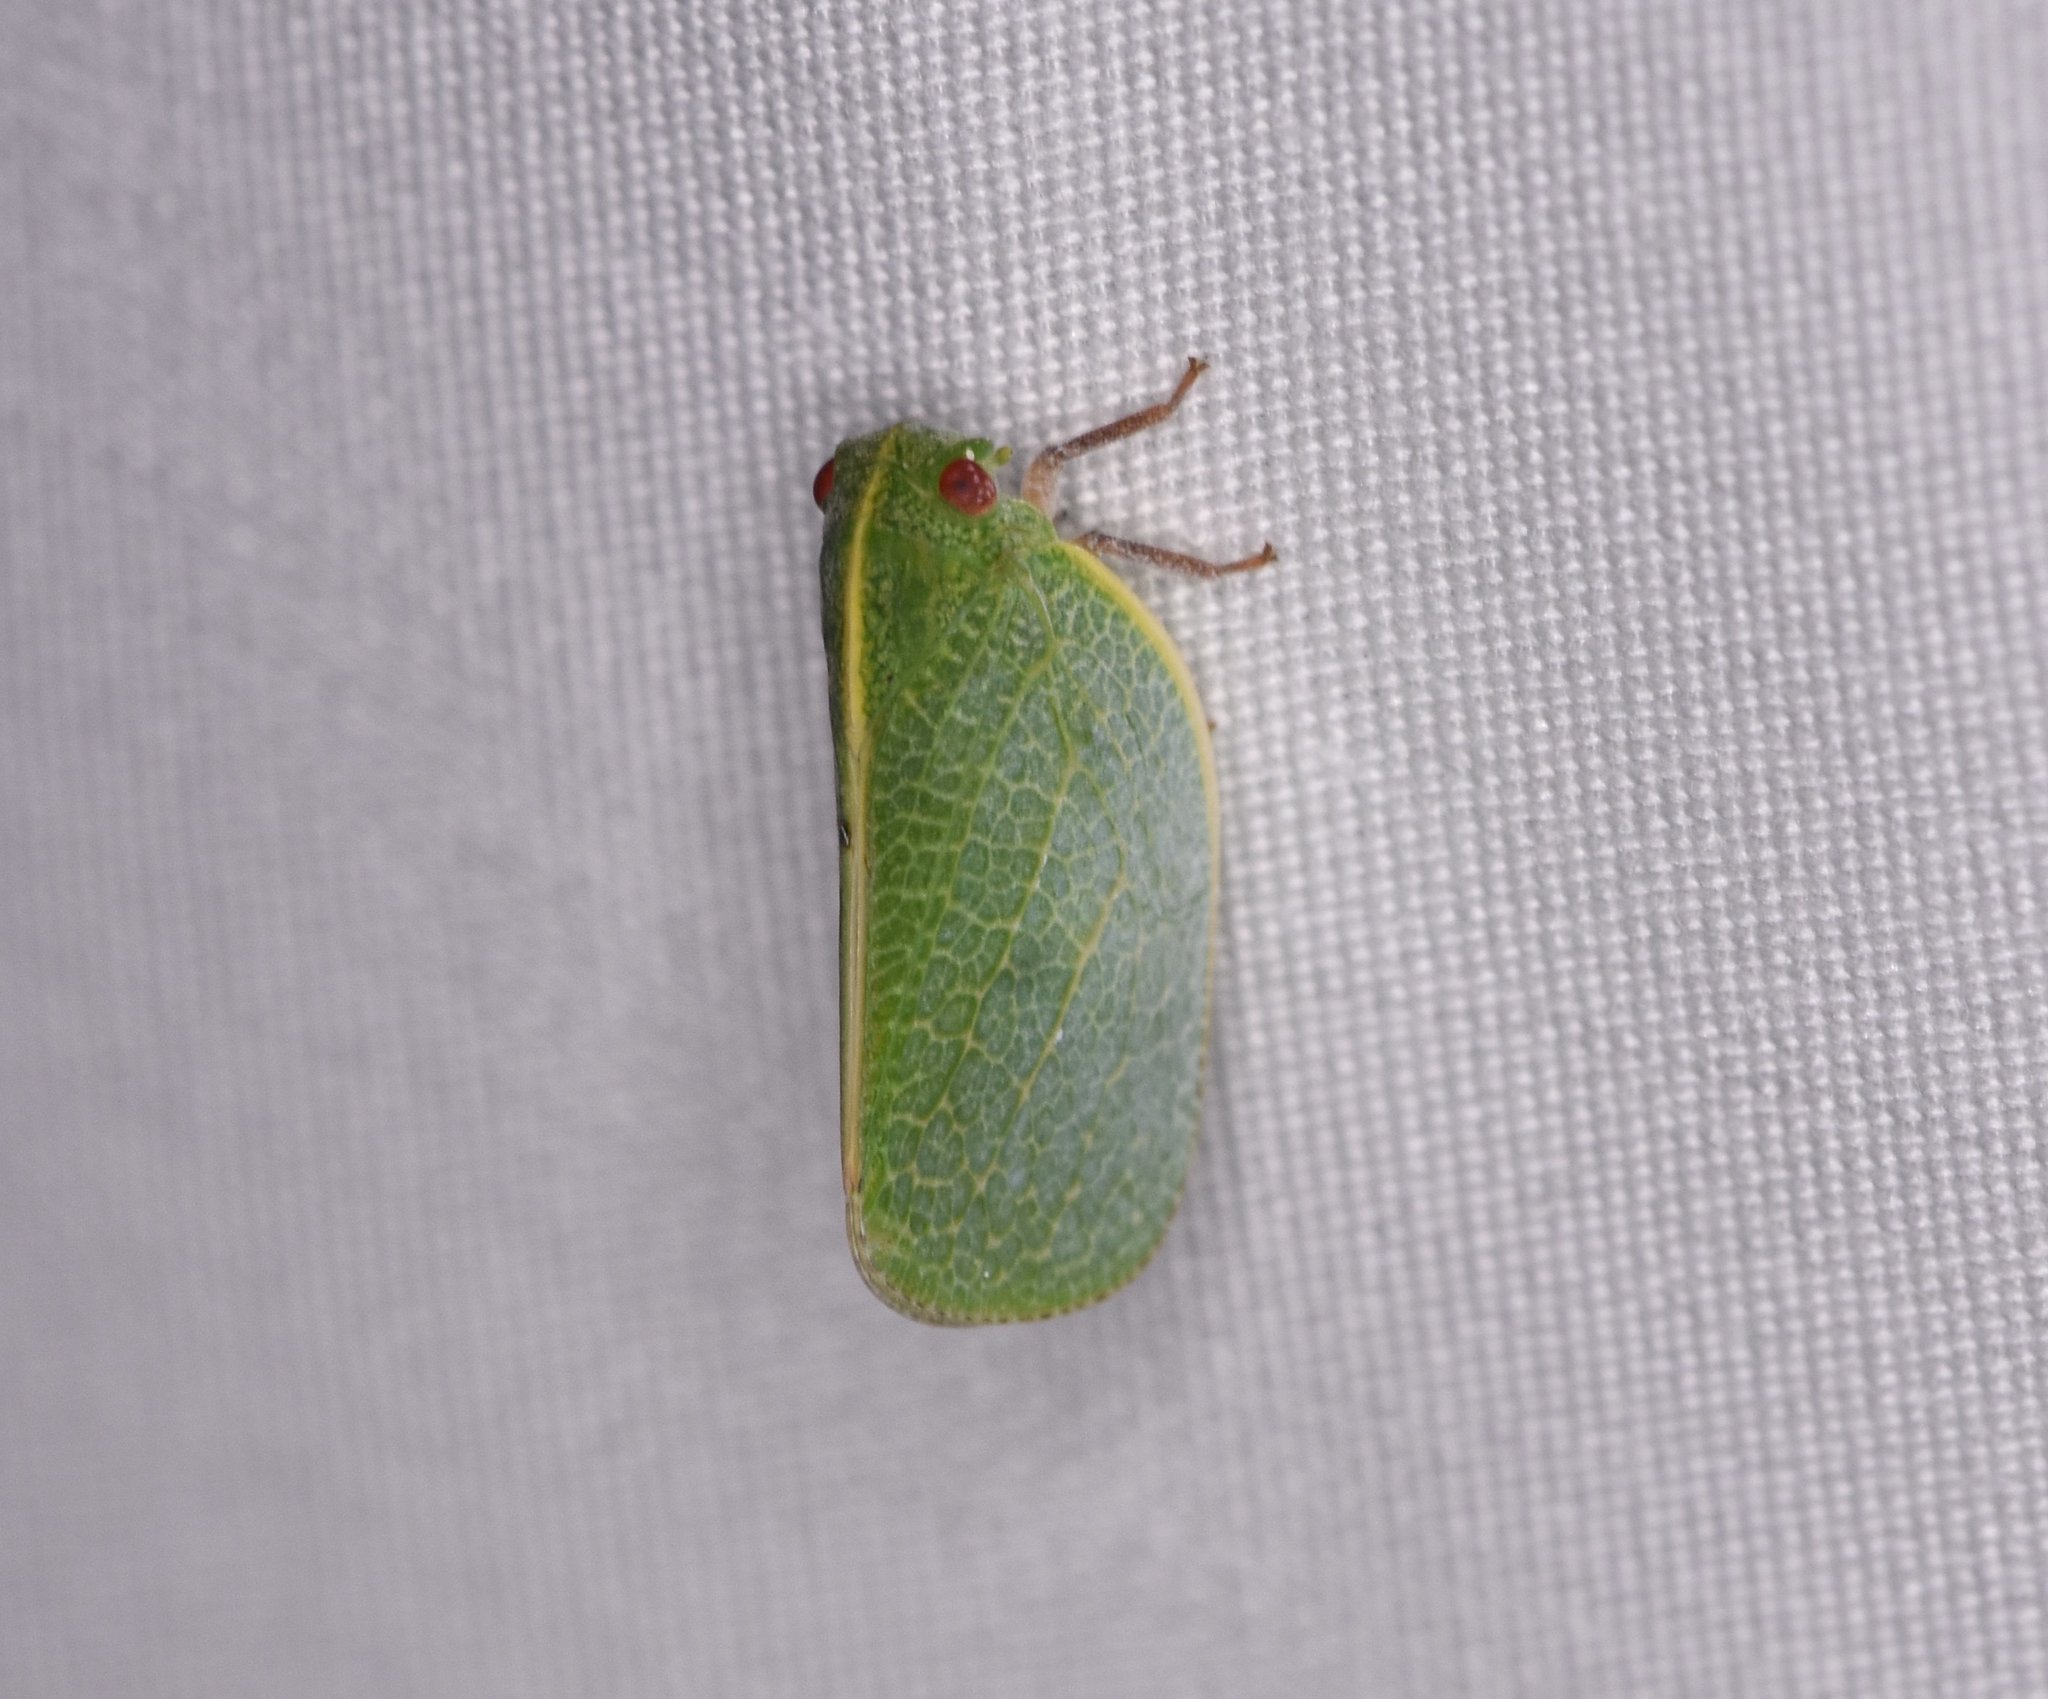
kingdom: Animalia
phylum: Arthropoda
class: Insecta
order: Hemiptera
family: Acanaloniidae
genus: Acanalonia
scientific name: Acanalonia servillei
